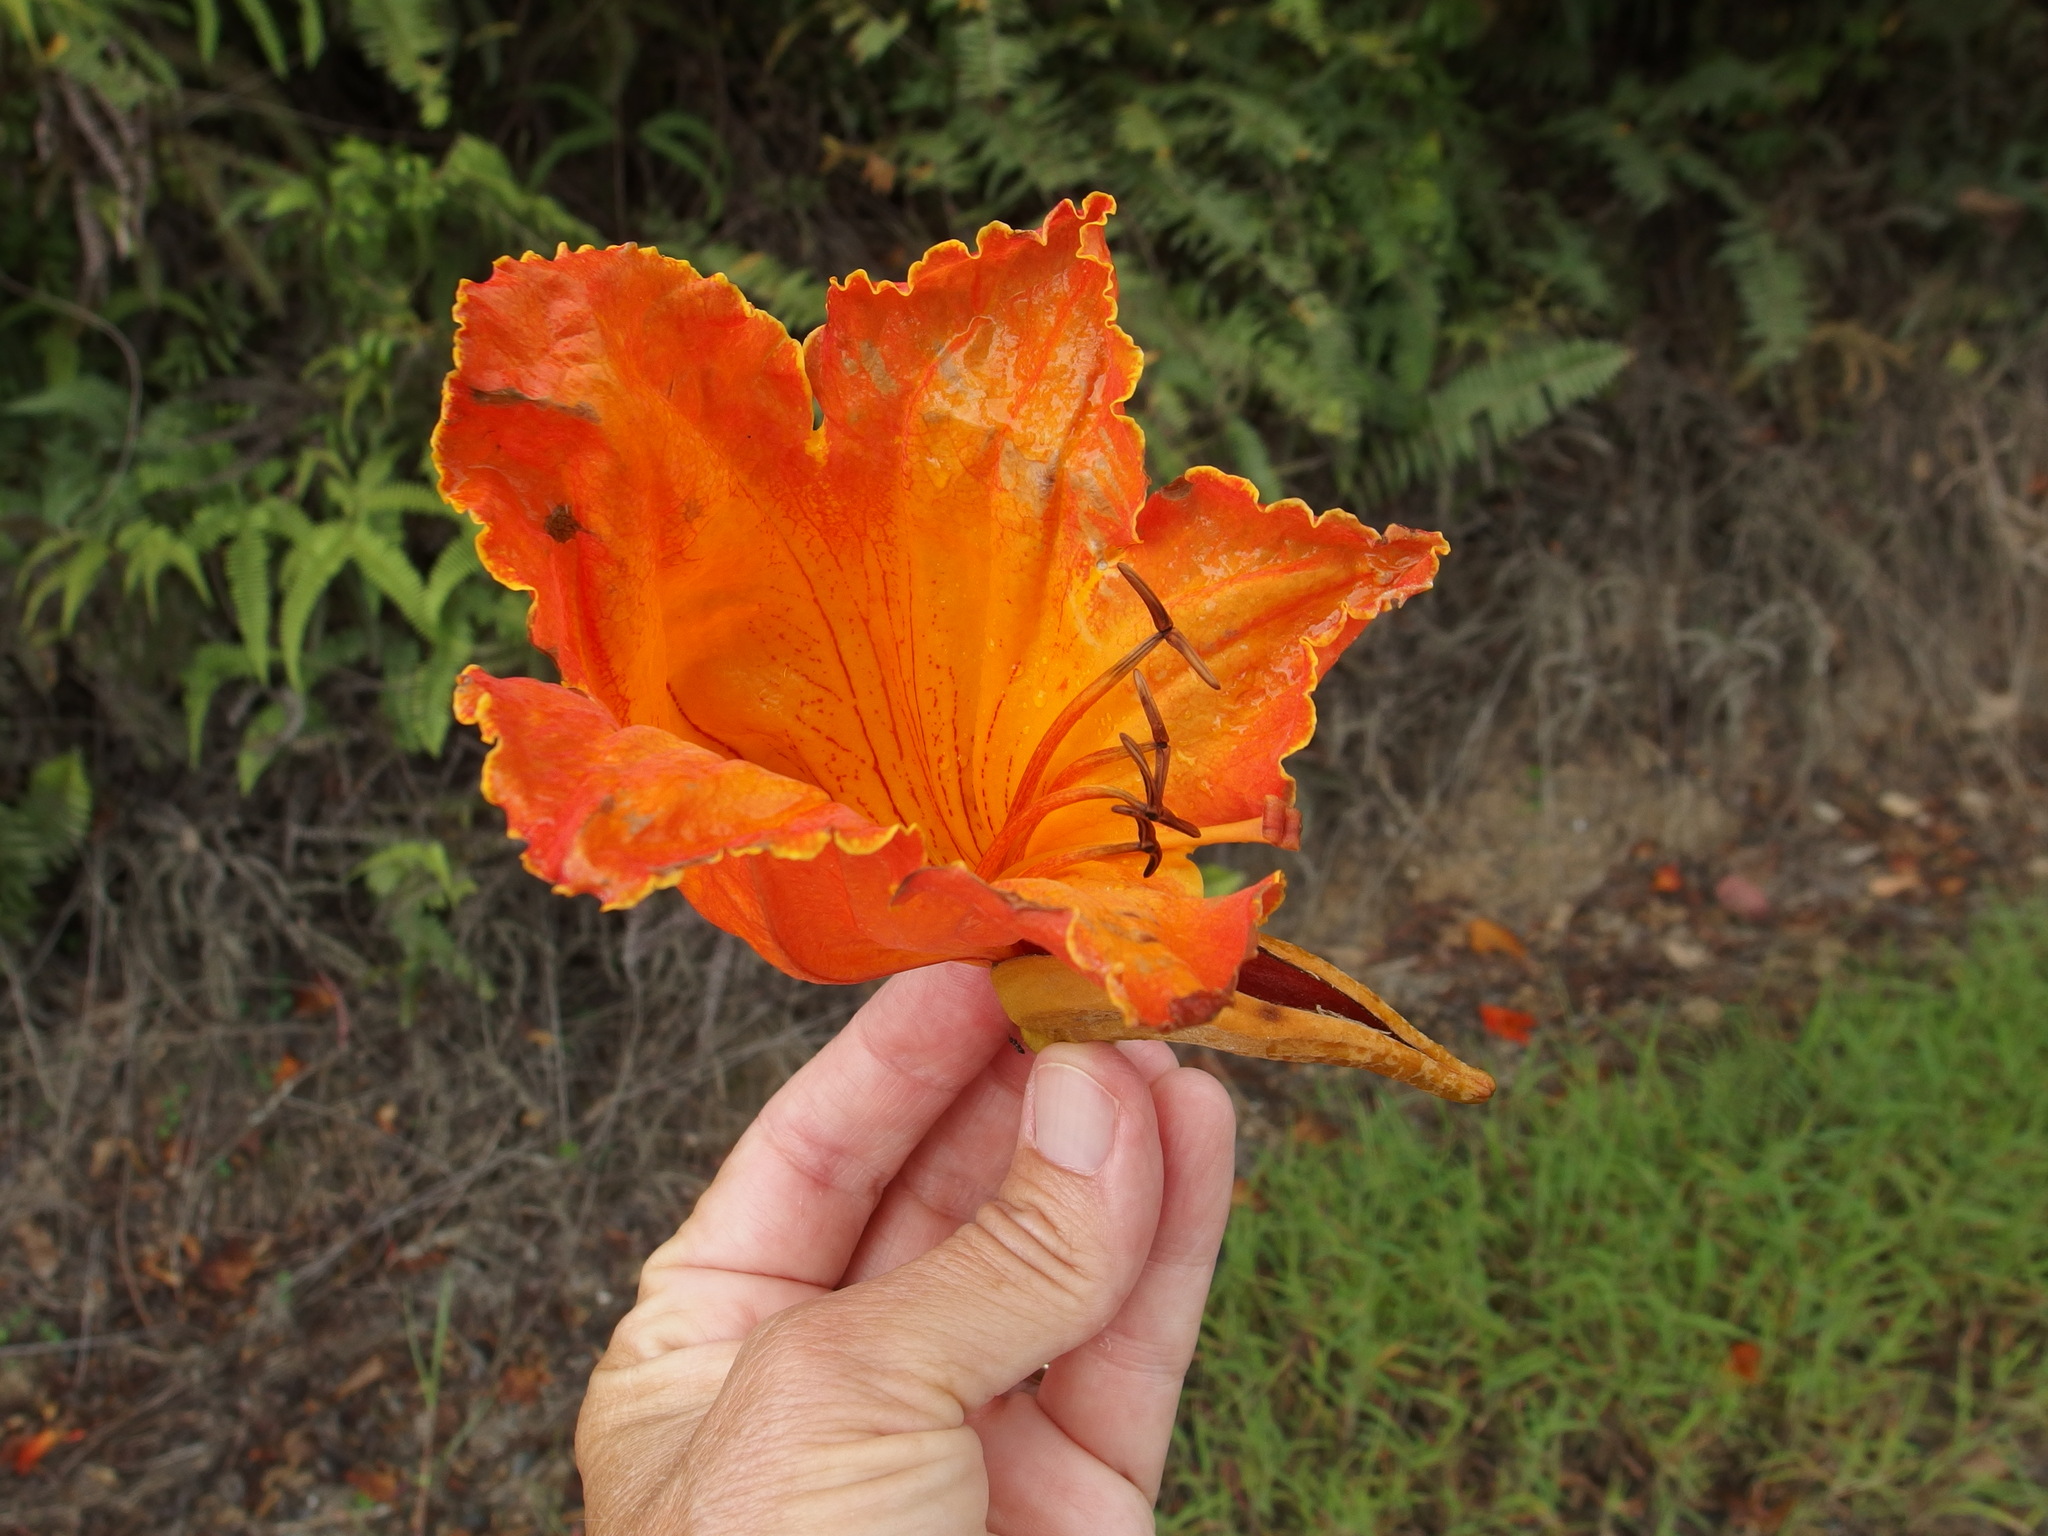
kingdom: Plantae
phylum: Tracheophyta
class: Magnoliopsida
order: Lamiales
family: Bignoniaceae
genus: Spathodea
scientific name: Spathodea campanulata
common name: African tuliptree
